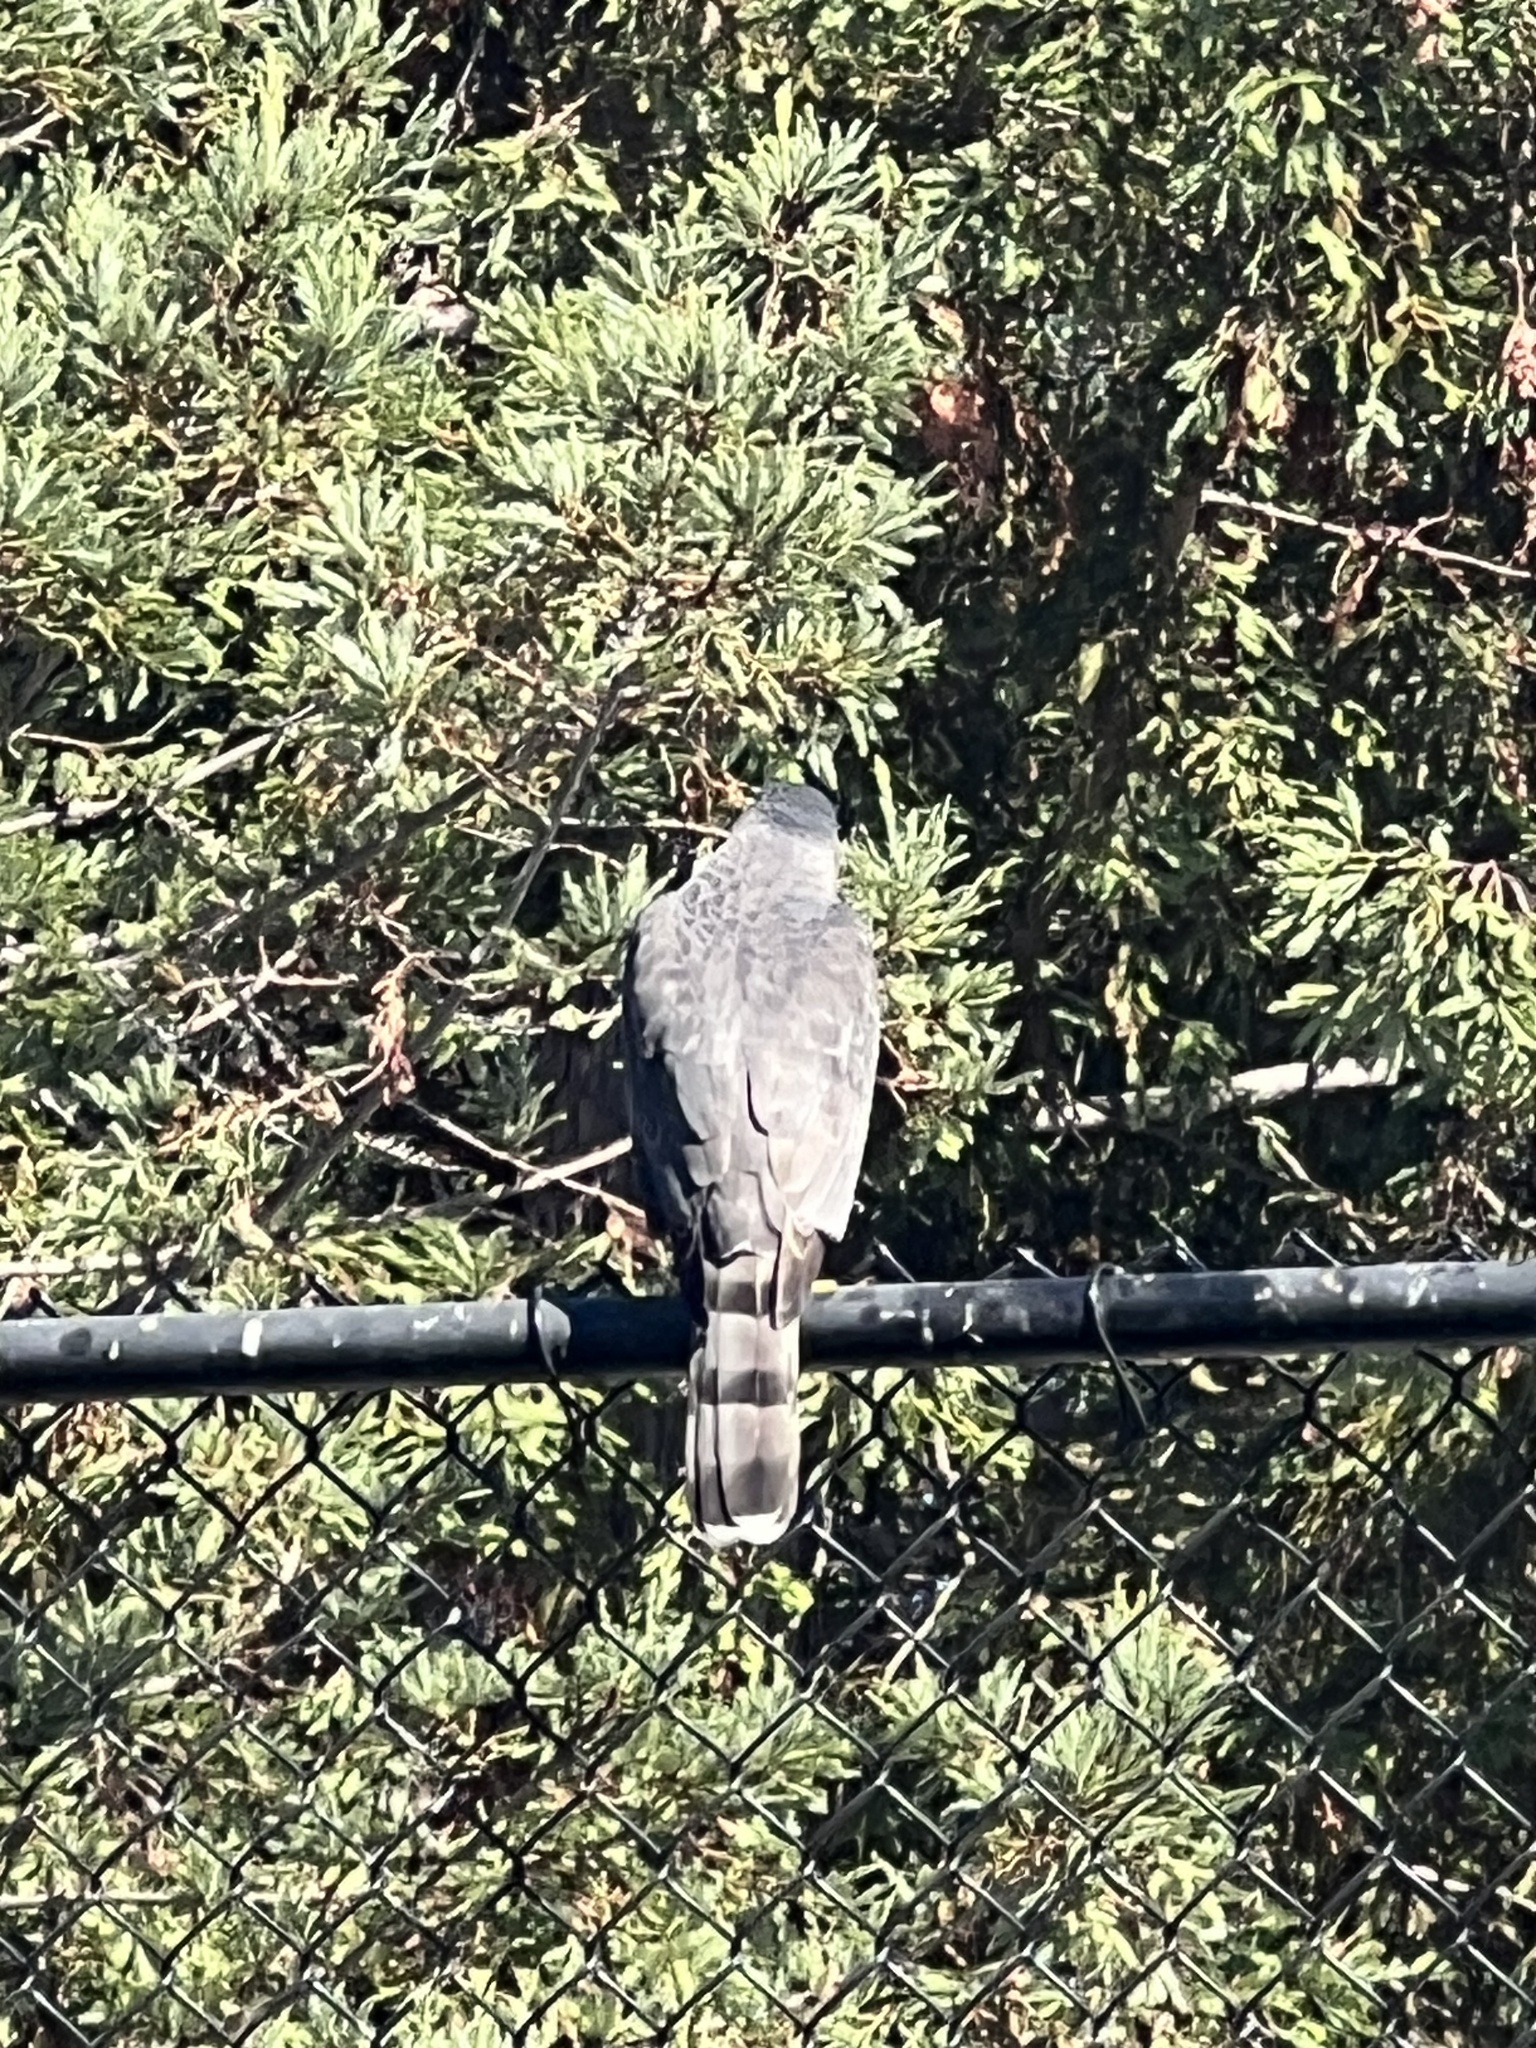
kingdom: Animalia
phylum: Chordata
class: Aves
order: Accipitriformes
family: Accipitridae
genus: Accipiter
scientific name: Accipiter cooperii
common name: Cooper's hawk
